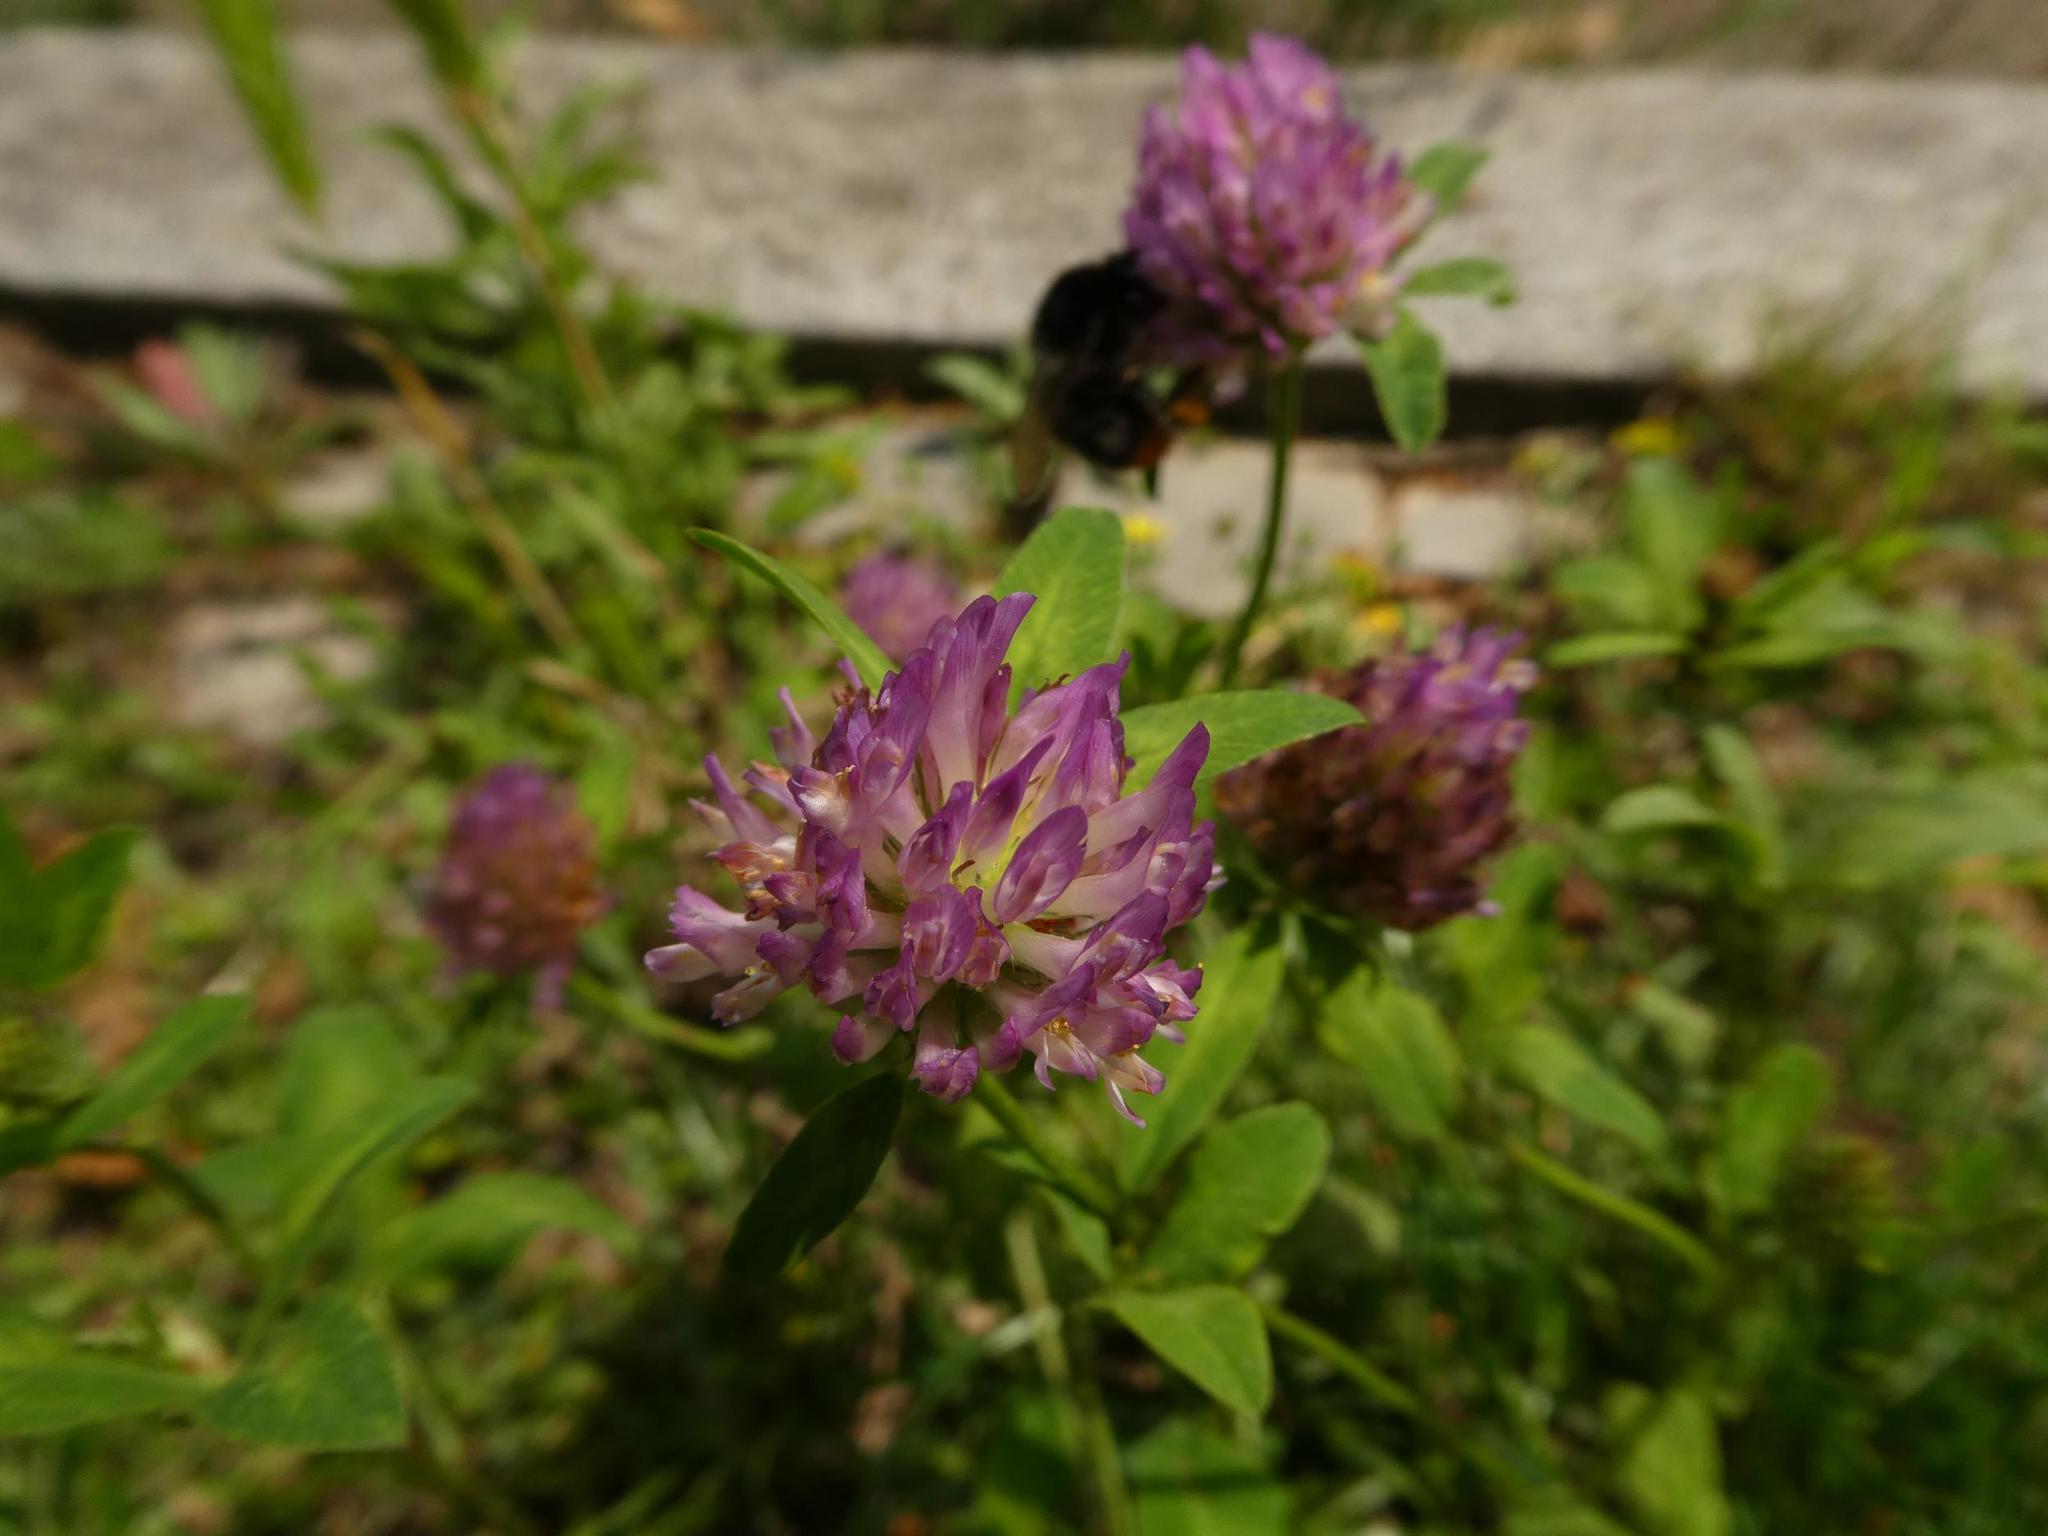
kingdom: Plantae
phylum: Tracheophyta
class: Magnoliopsida
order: Fabales
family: Fabaceae
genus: Trifolium
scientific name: Trifolium pratense
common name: Red clover
